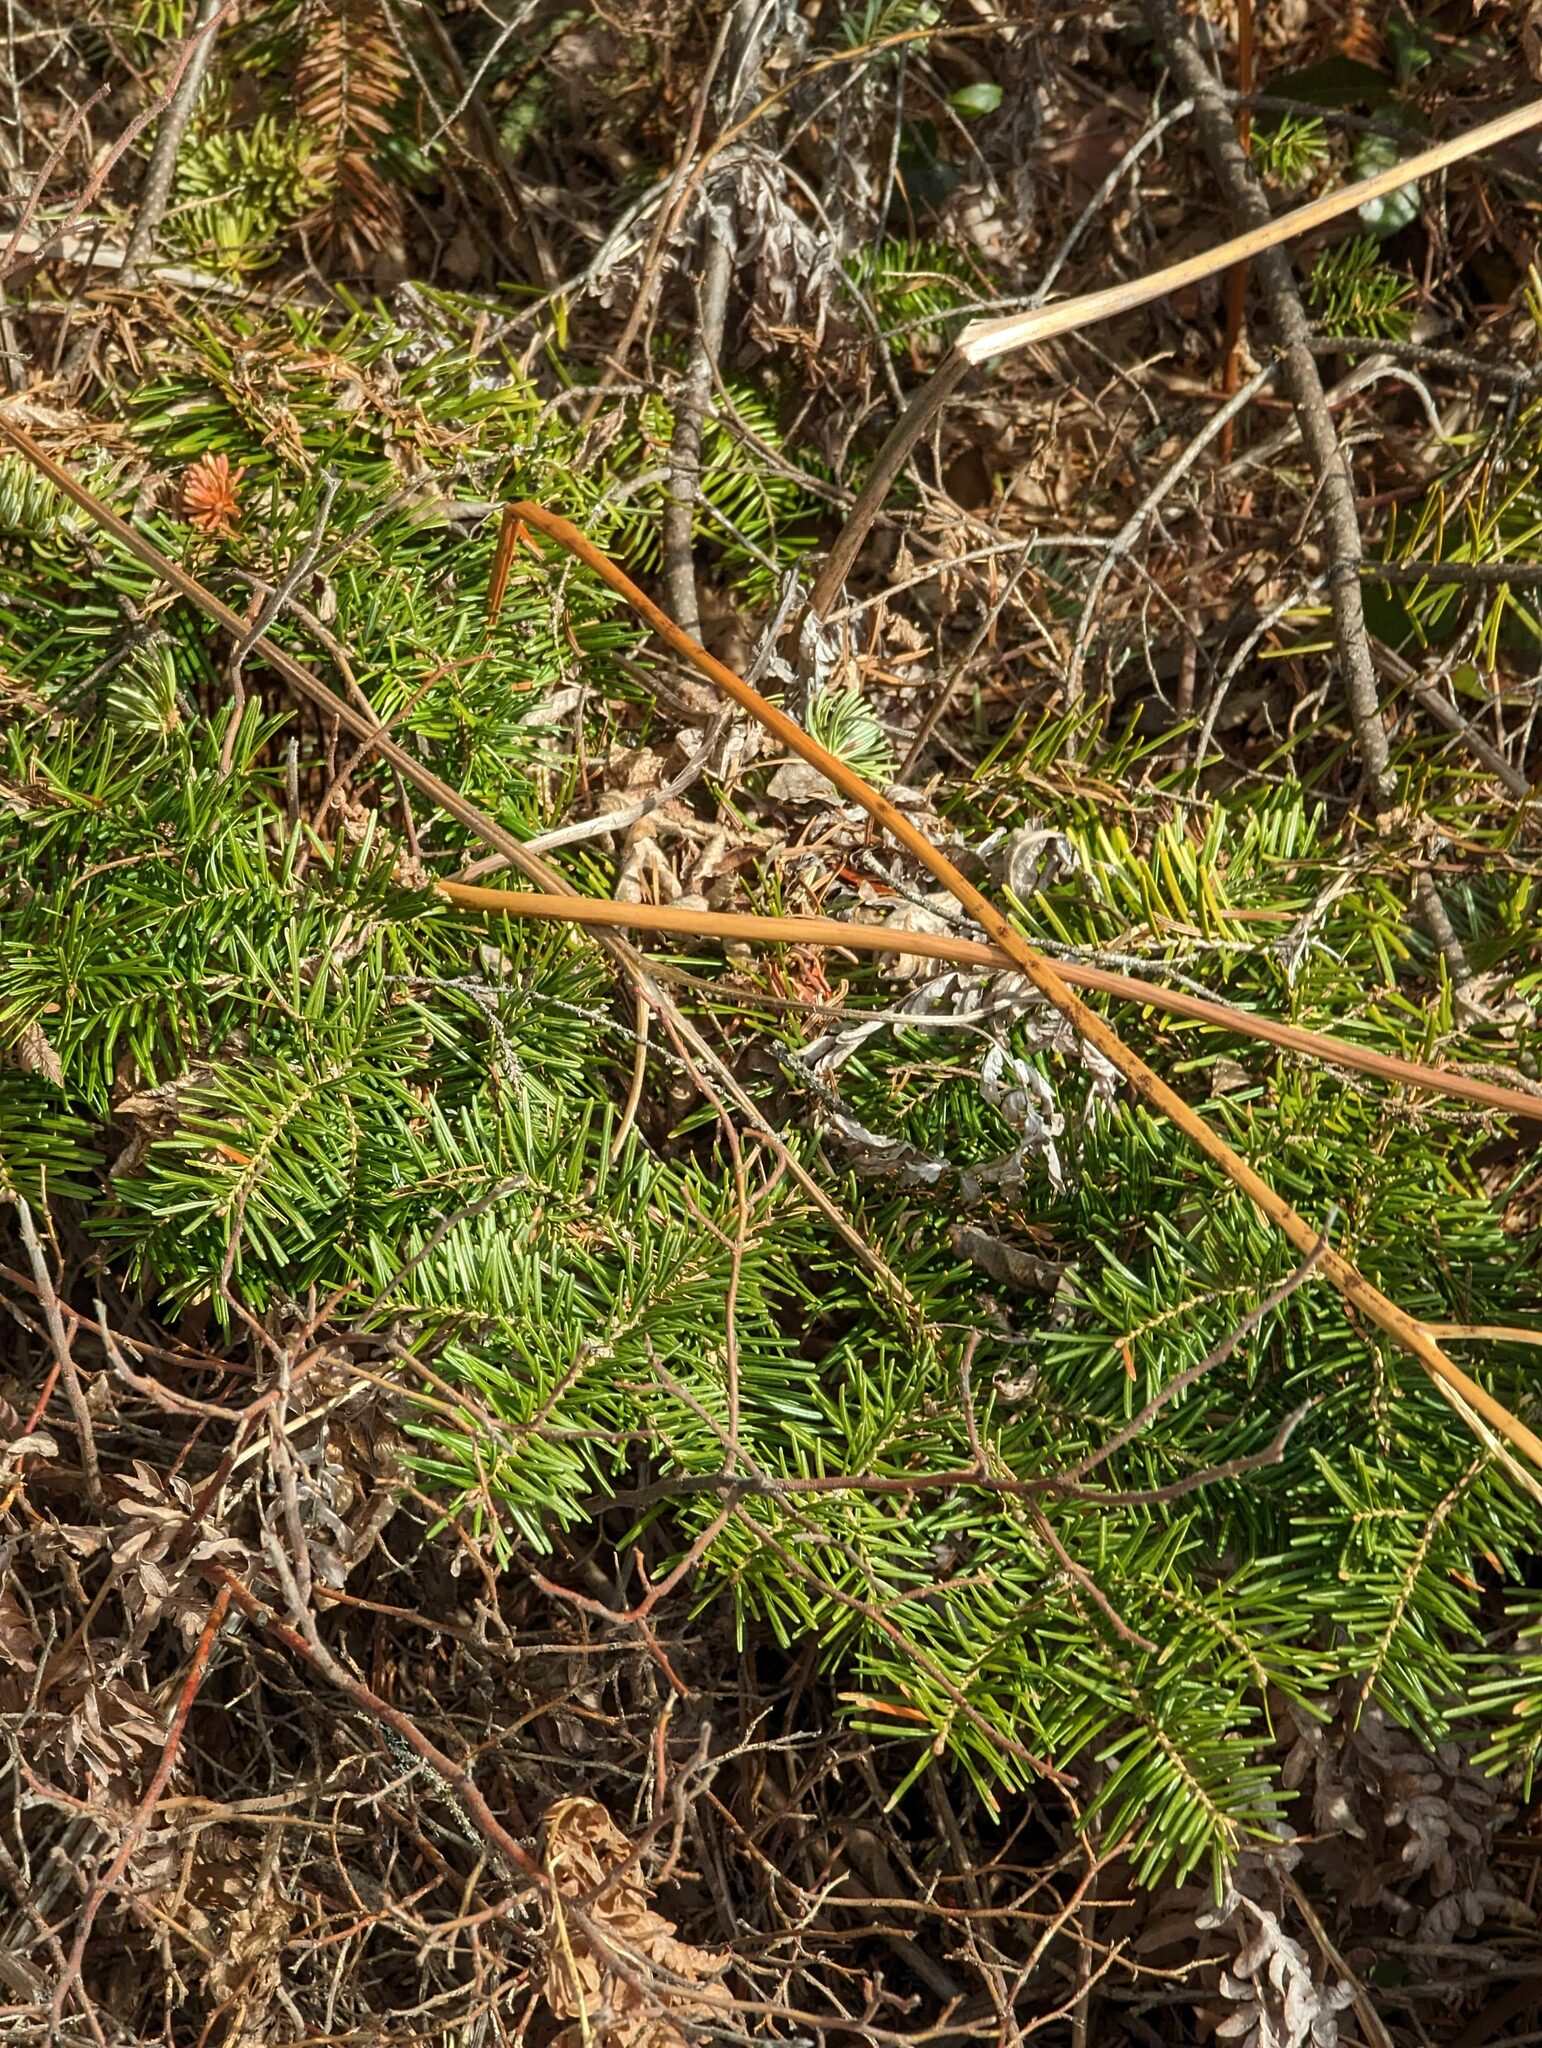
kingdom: Plantae
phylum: Tracheophyta
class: Pinopsida
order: Pinales
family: Pinaceae
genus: Abies
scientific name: Abies balsamea
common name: Balsam fir
